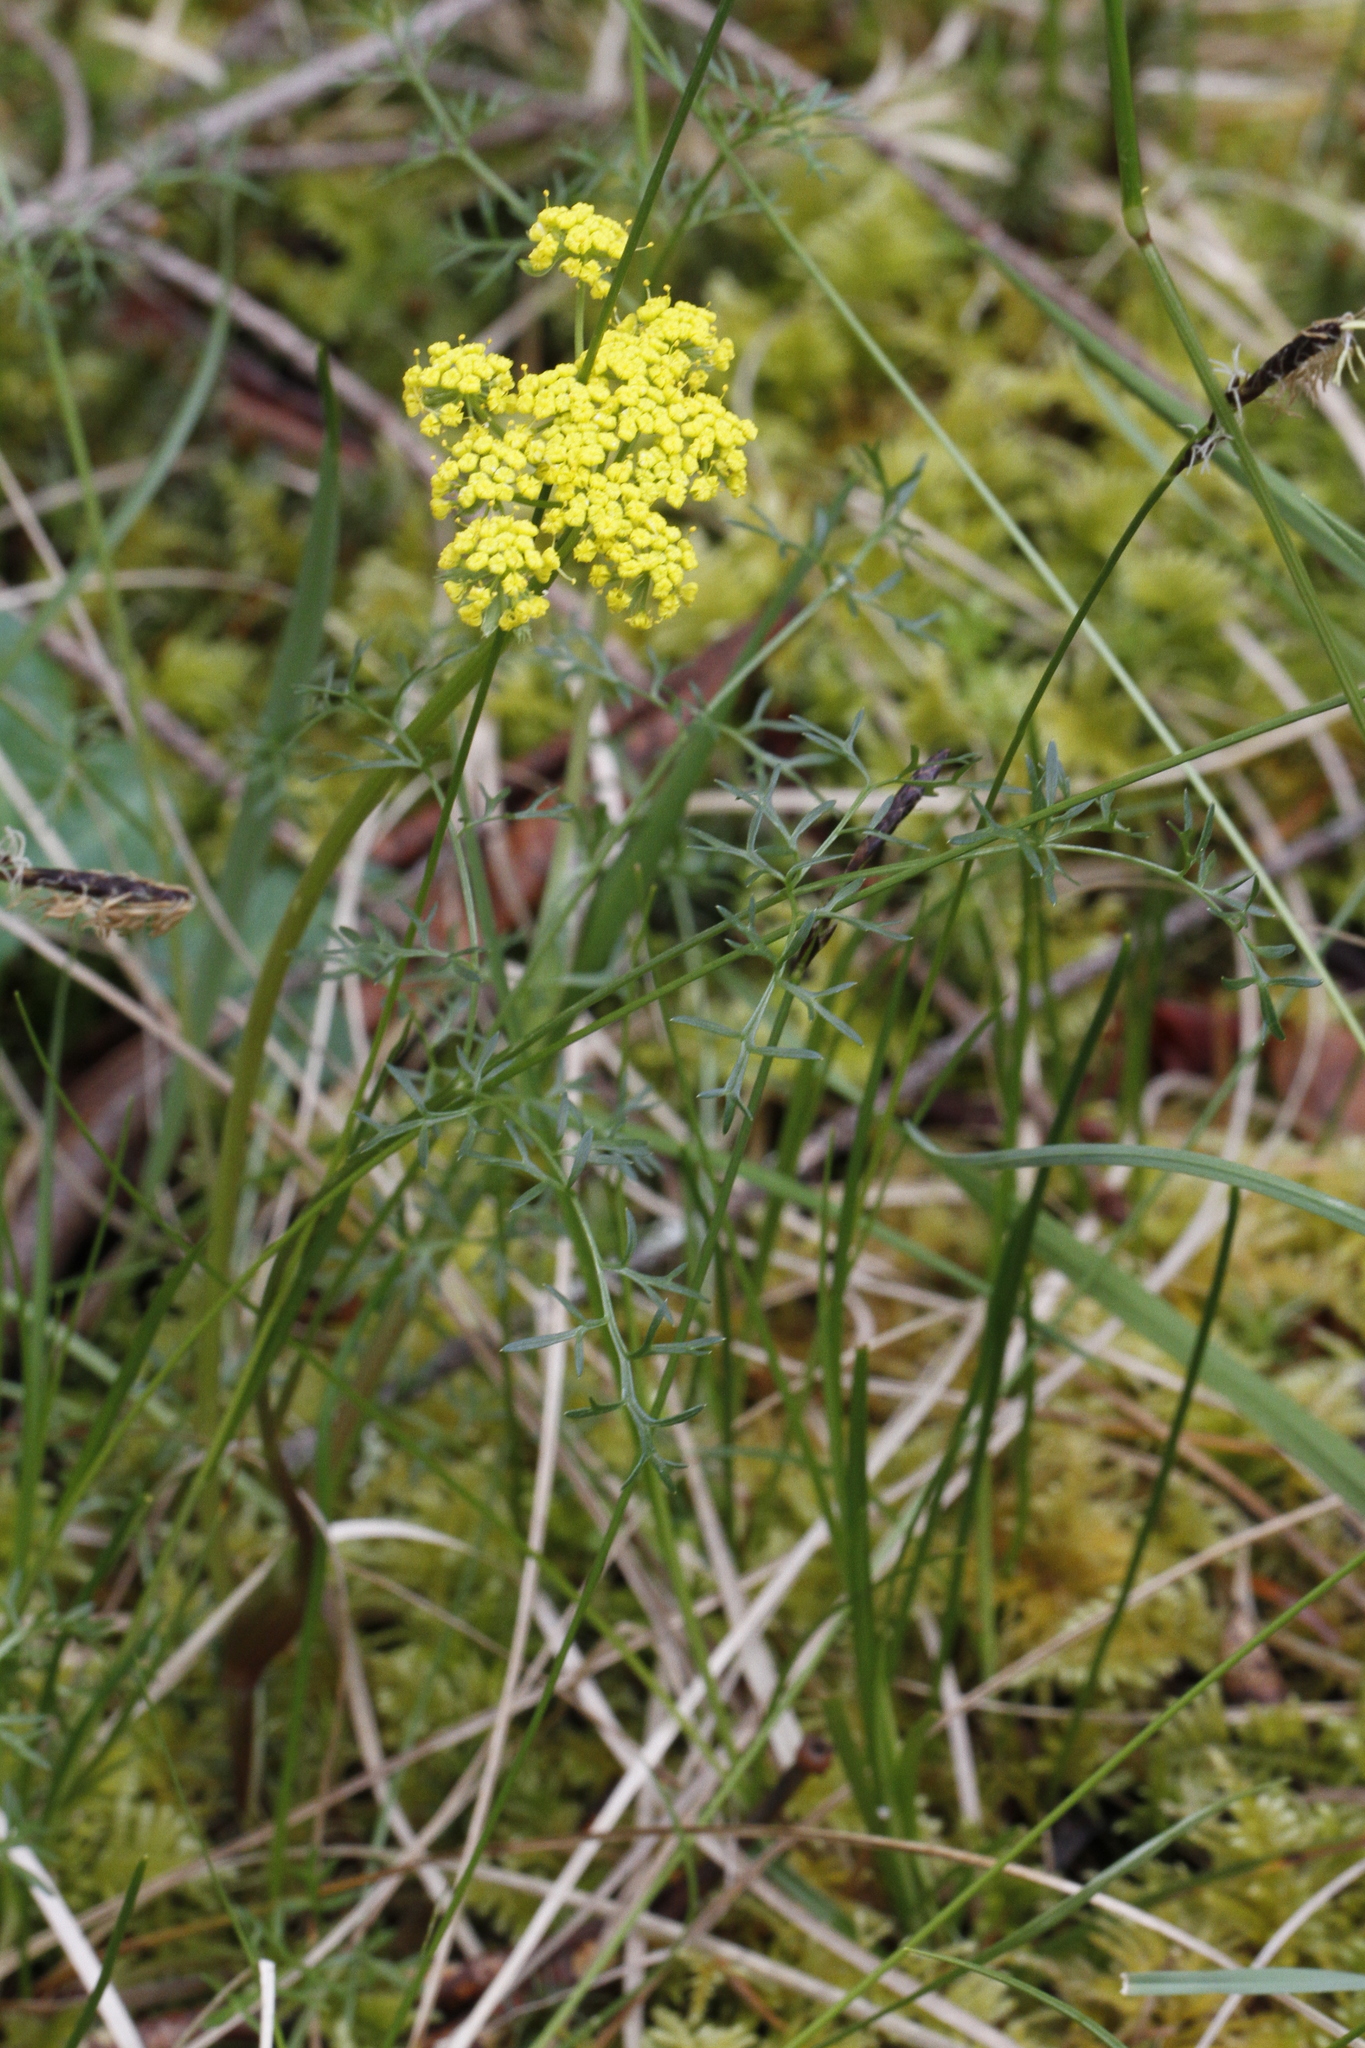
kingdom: Plantae
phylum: Tracheophyta
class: Magnoliopsida
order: Apiales
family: Apiaceae
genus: Lomatium
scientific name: Lomatium utriculatum
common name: Fine-leaf desert-parsley
